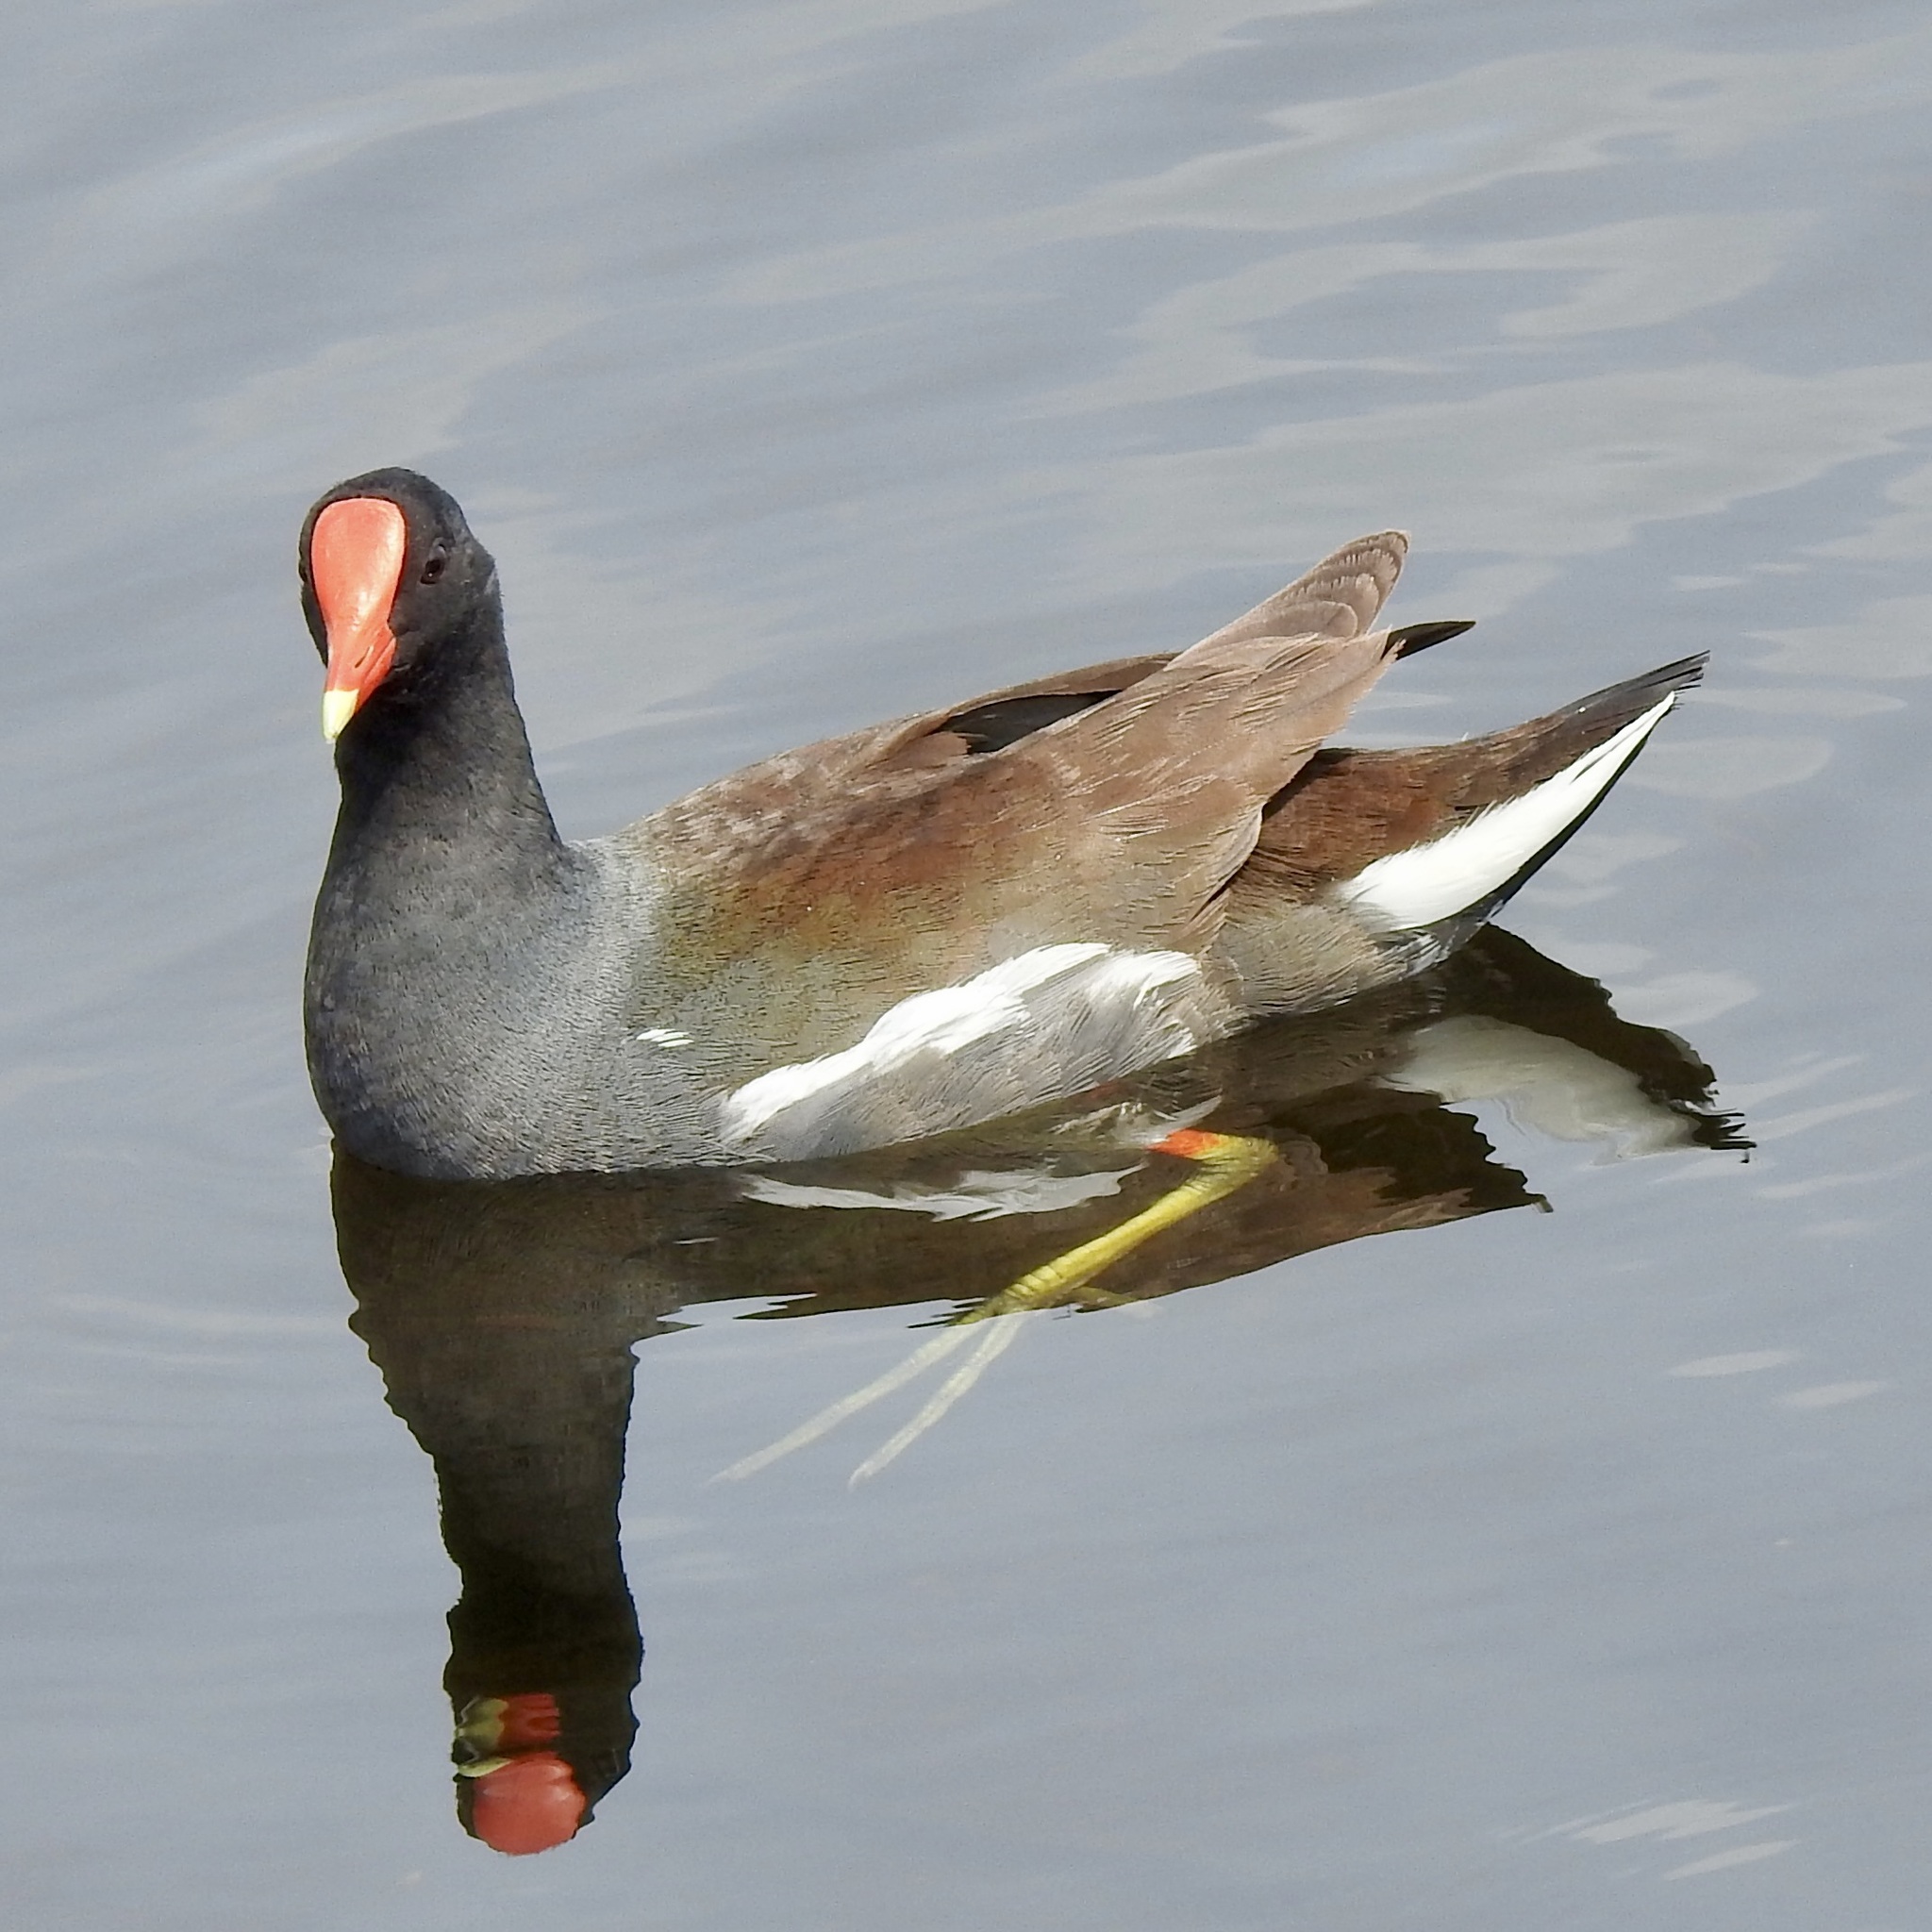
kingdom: Animalia
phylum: Chordata
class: Aves
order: Gruiformes
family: Rallidae
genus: Gallinula
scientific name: Gallinula chloropus
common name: Common moorhen
